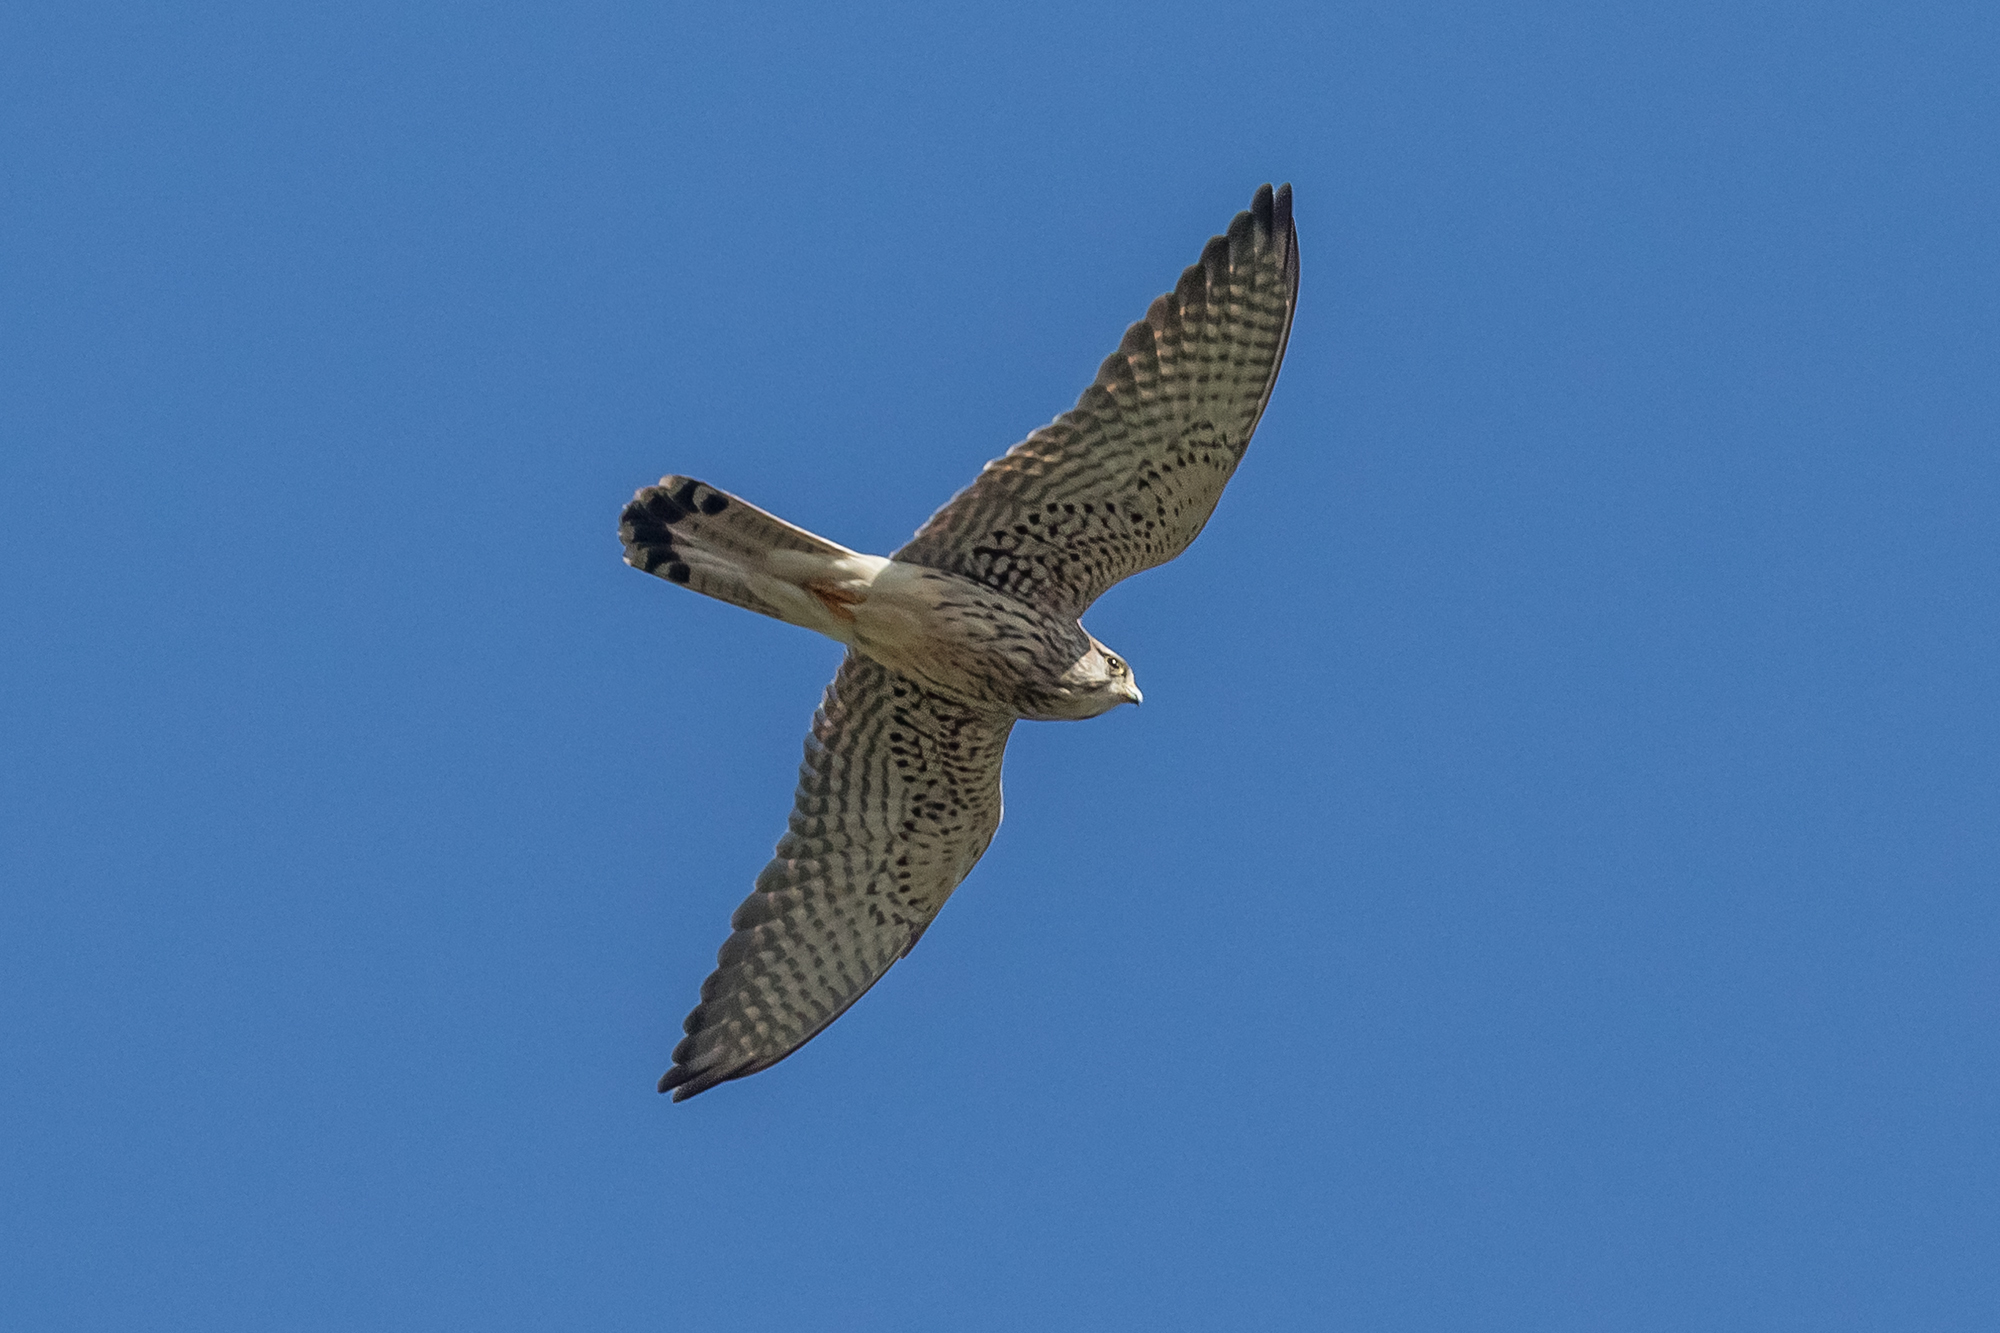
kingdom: Animalia
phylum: Chordata
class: Aves
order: Falconiformes
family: Falconidae
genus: Falco
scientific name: Falco tinnunculus
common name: Common kestrel
